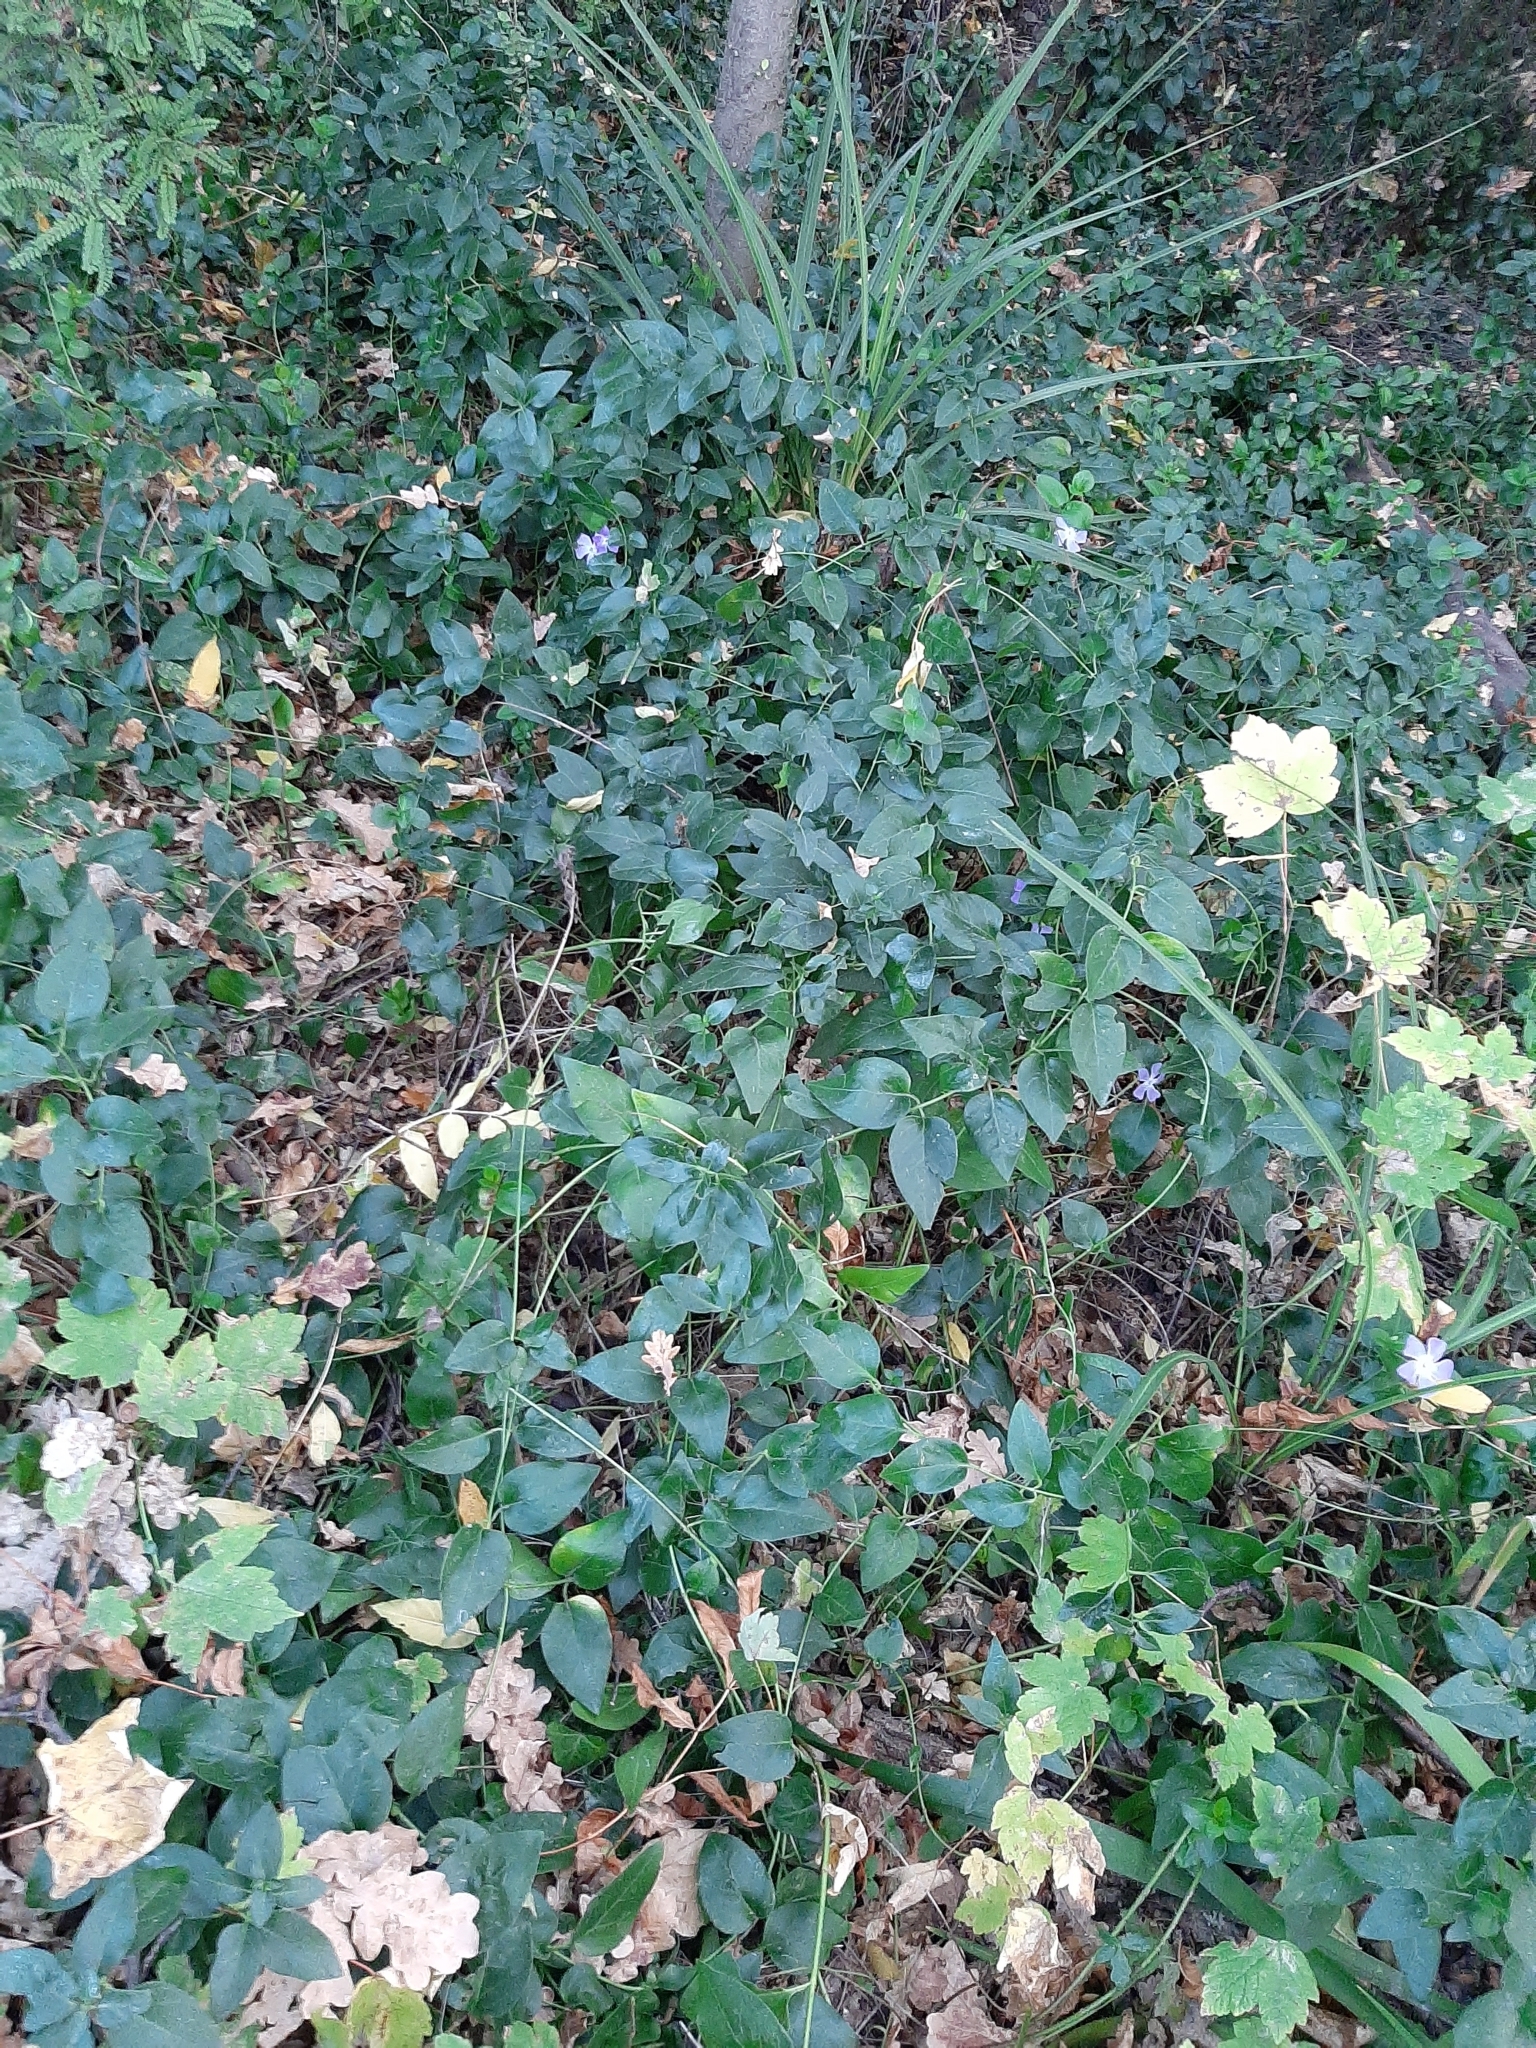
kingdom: Plantae
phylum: Tracheophyta
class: Magnoliopsida
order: Gentianales
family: Apocynaceae
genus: Vinca
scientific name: Vinca major
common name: Greater periwinkle
